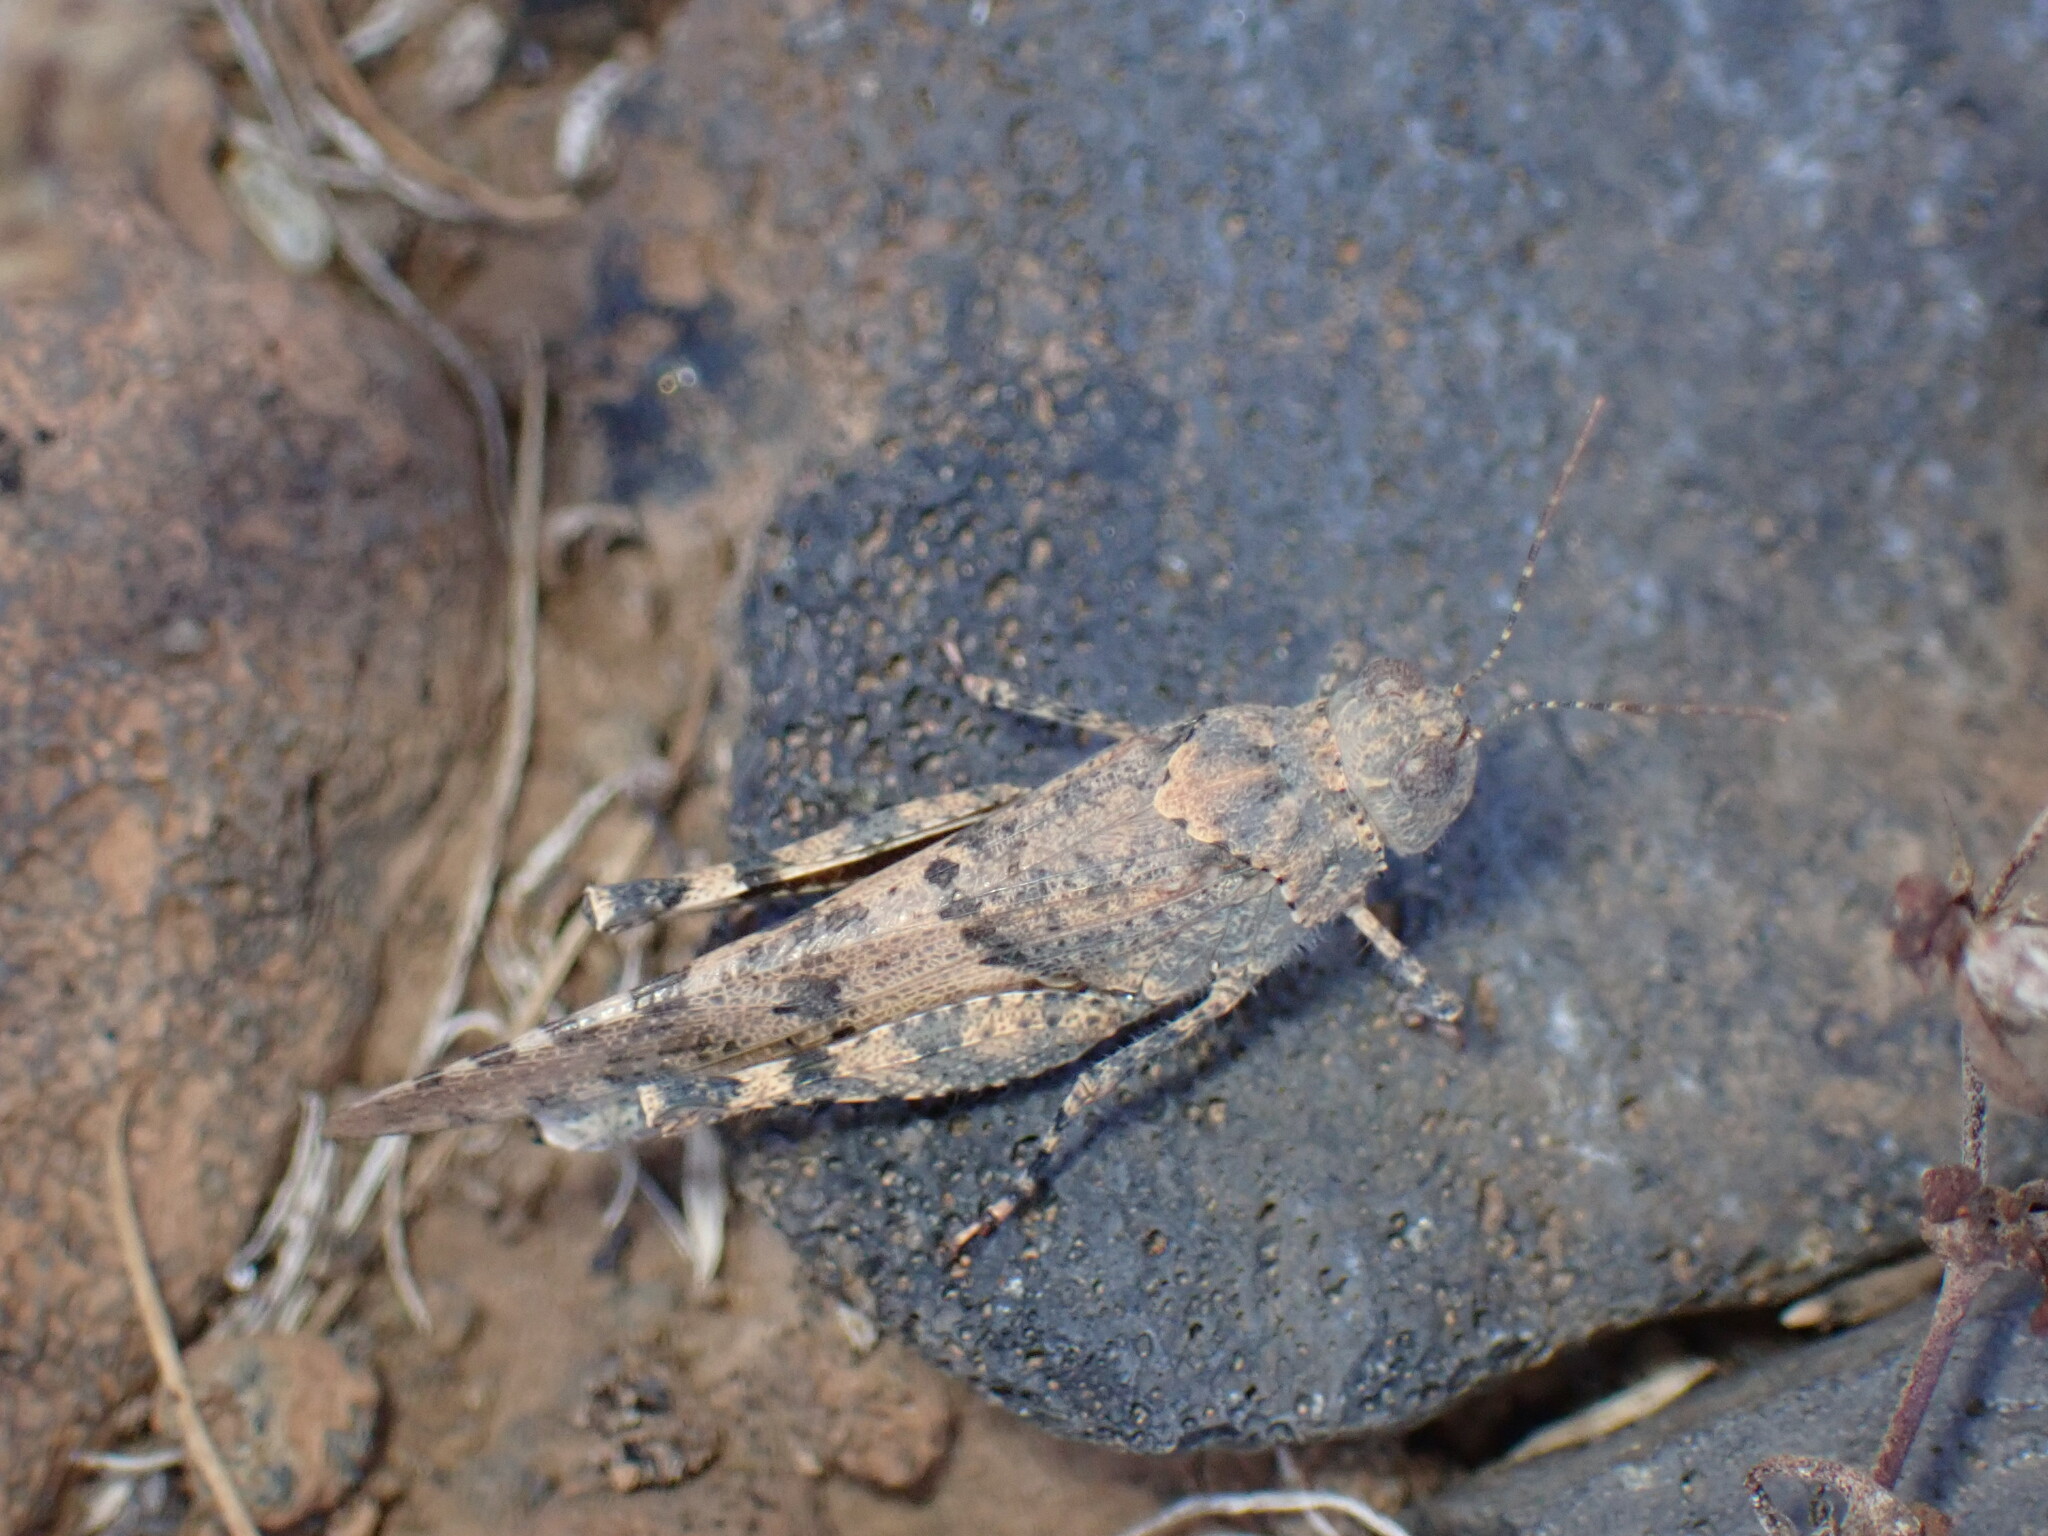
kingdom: Animalia
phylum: Arthropoda
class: Insecta
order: Orthoptera
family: Acrididae
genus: Sphingonotus
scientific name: Sphingonotus picteti
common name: Tenerife sand grasshopper
